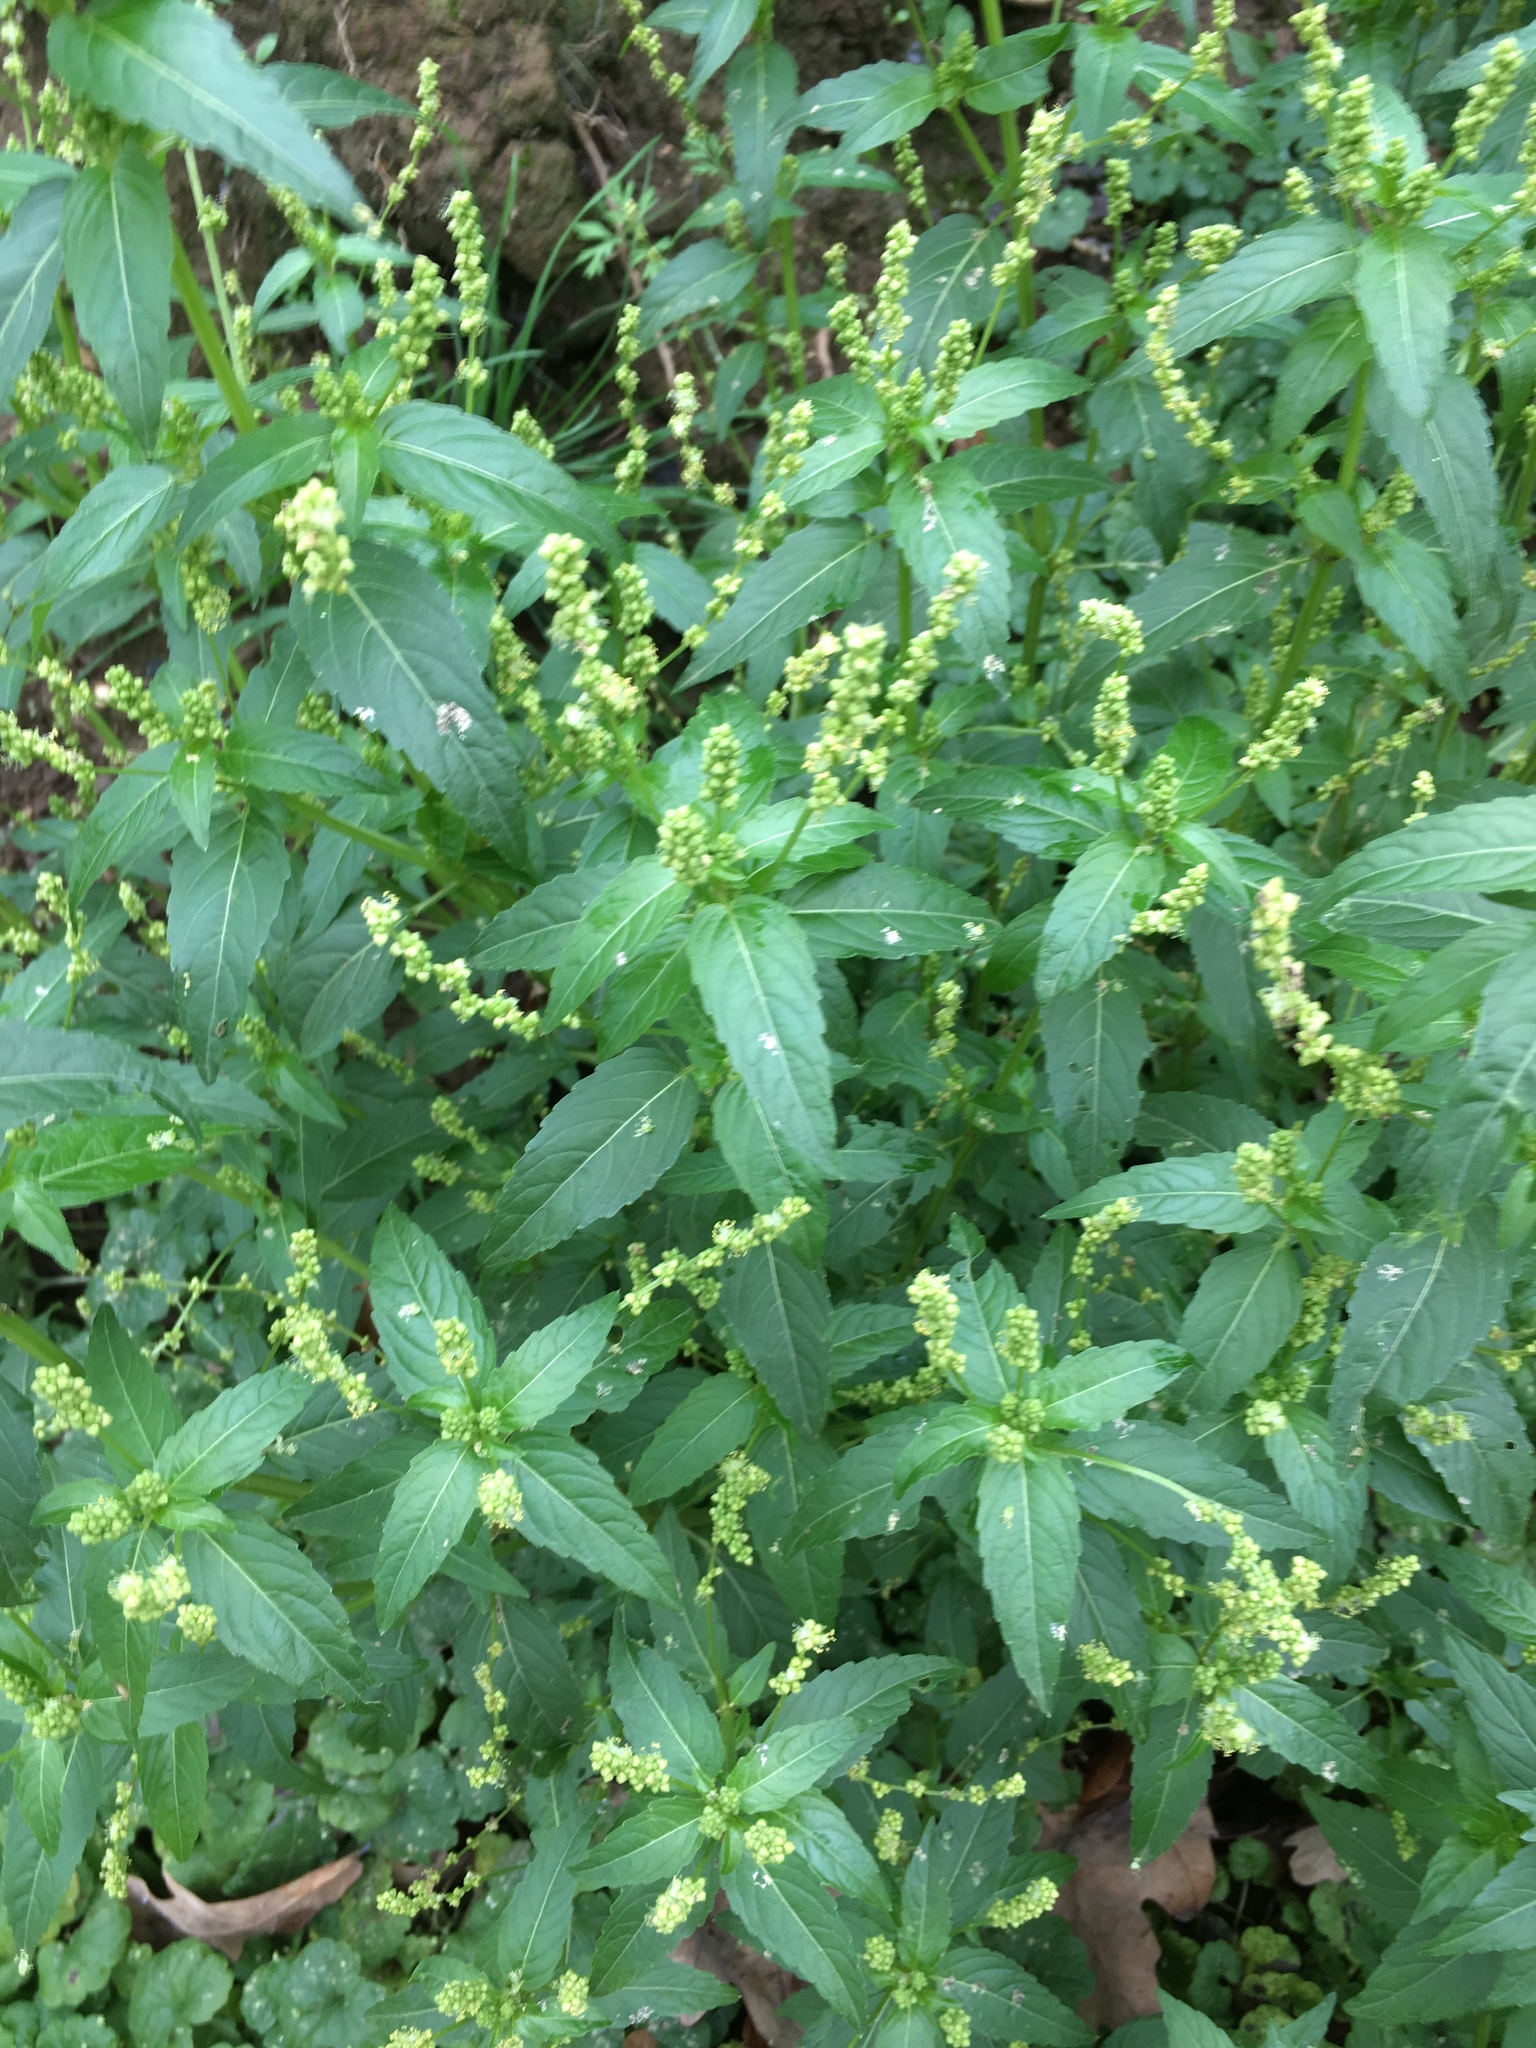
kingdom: Plantae
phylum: Tracheophyta
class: Magnoliopsida
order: Malpighiales
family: Euphorbiaceae
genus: Mercurialis
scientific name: Mercurialis annua
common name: Annual mercury
